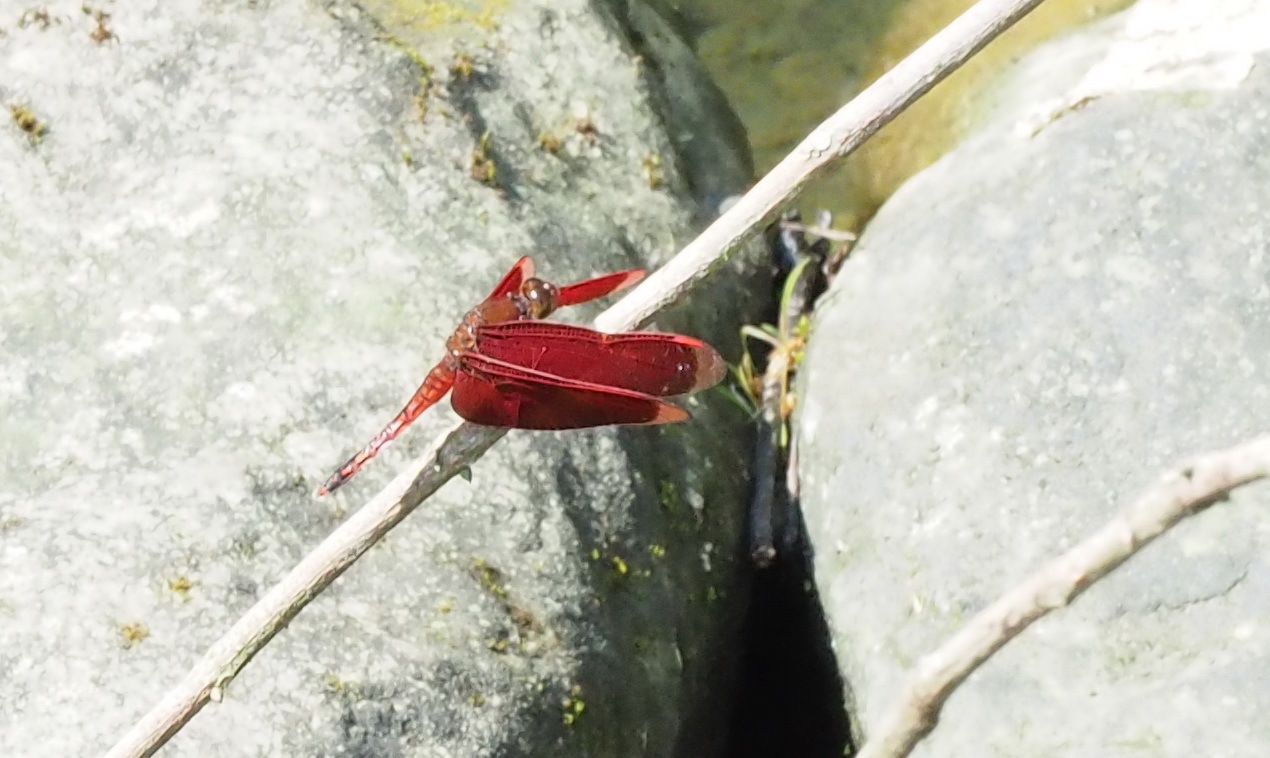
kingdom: Animalia
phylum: Arthropoda
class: Insecta
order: Odonata
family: Libellulidae
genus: Neurothemis
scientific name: Neurothemis taiwanensis
